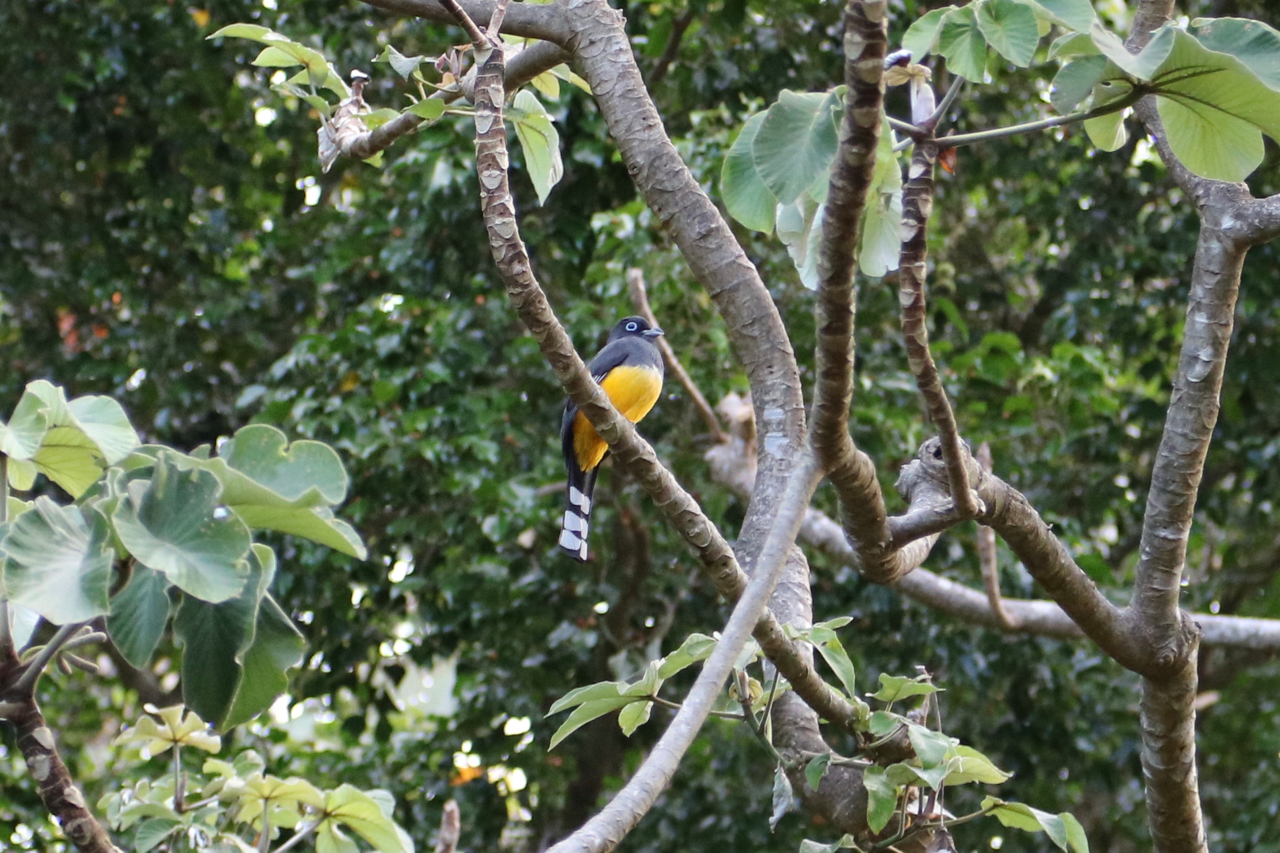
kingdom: Animalia
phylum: Chordata
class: Aves
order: Trogoniformes
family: Trogonidae
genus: Trogon
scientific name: Trogon melanocephalus
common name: Black-headed trogon
